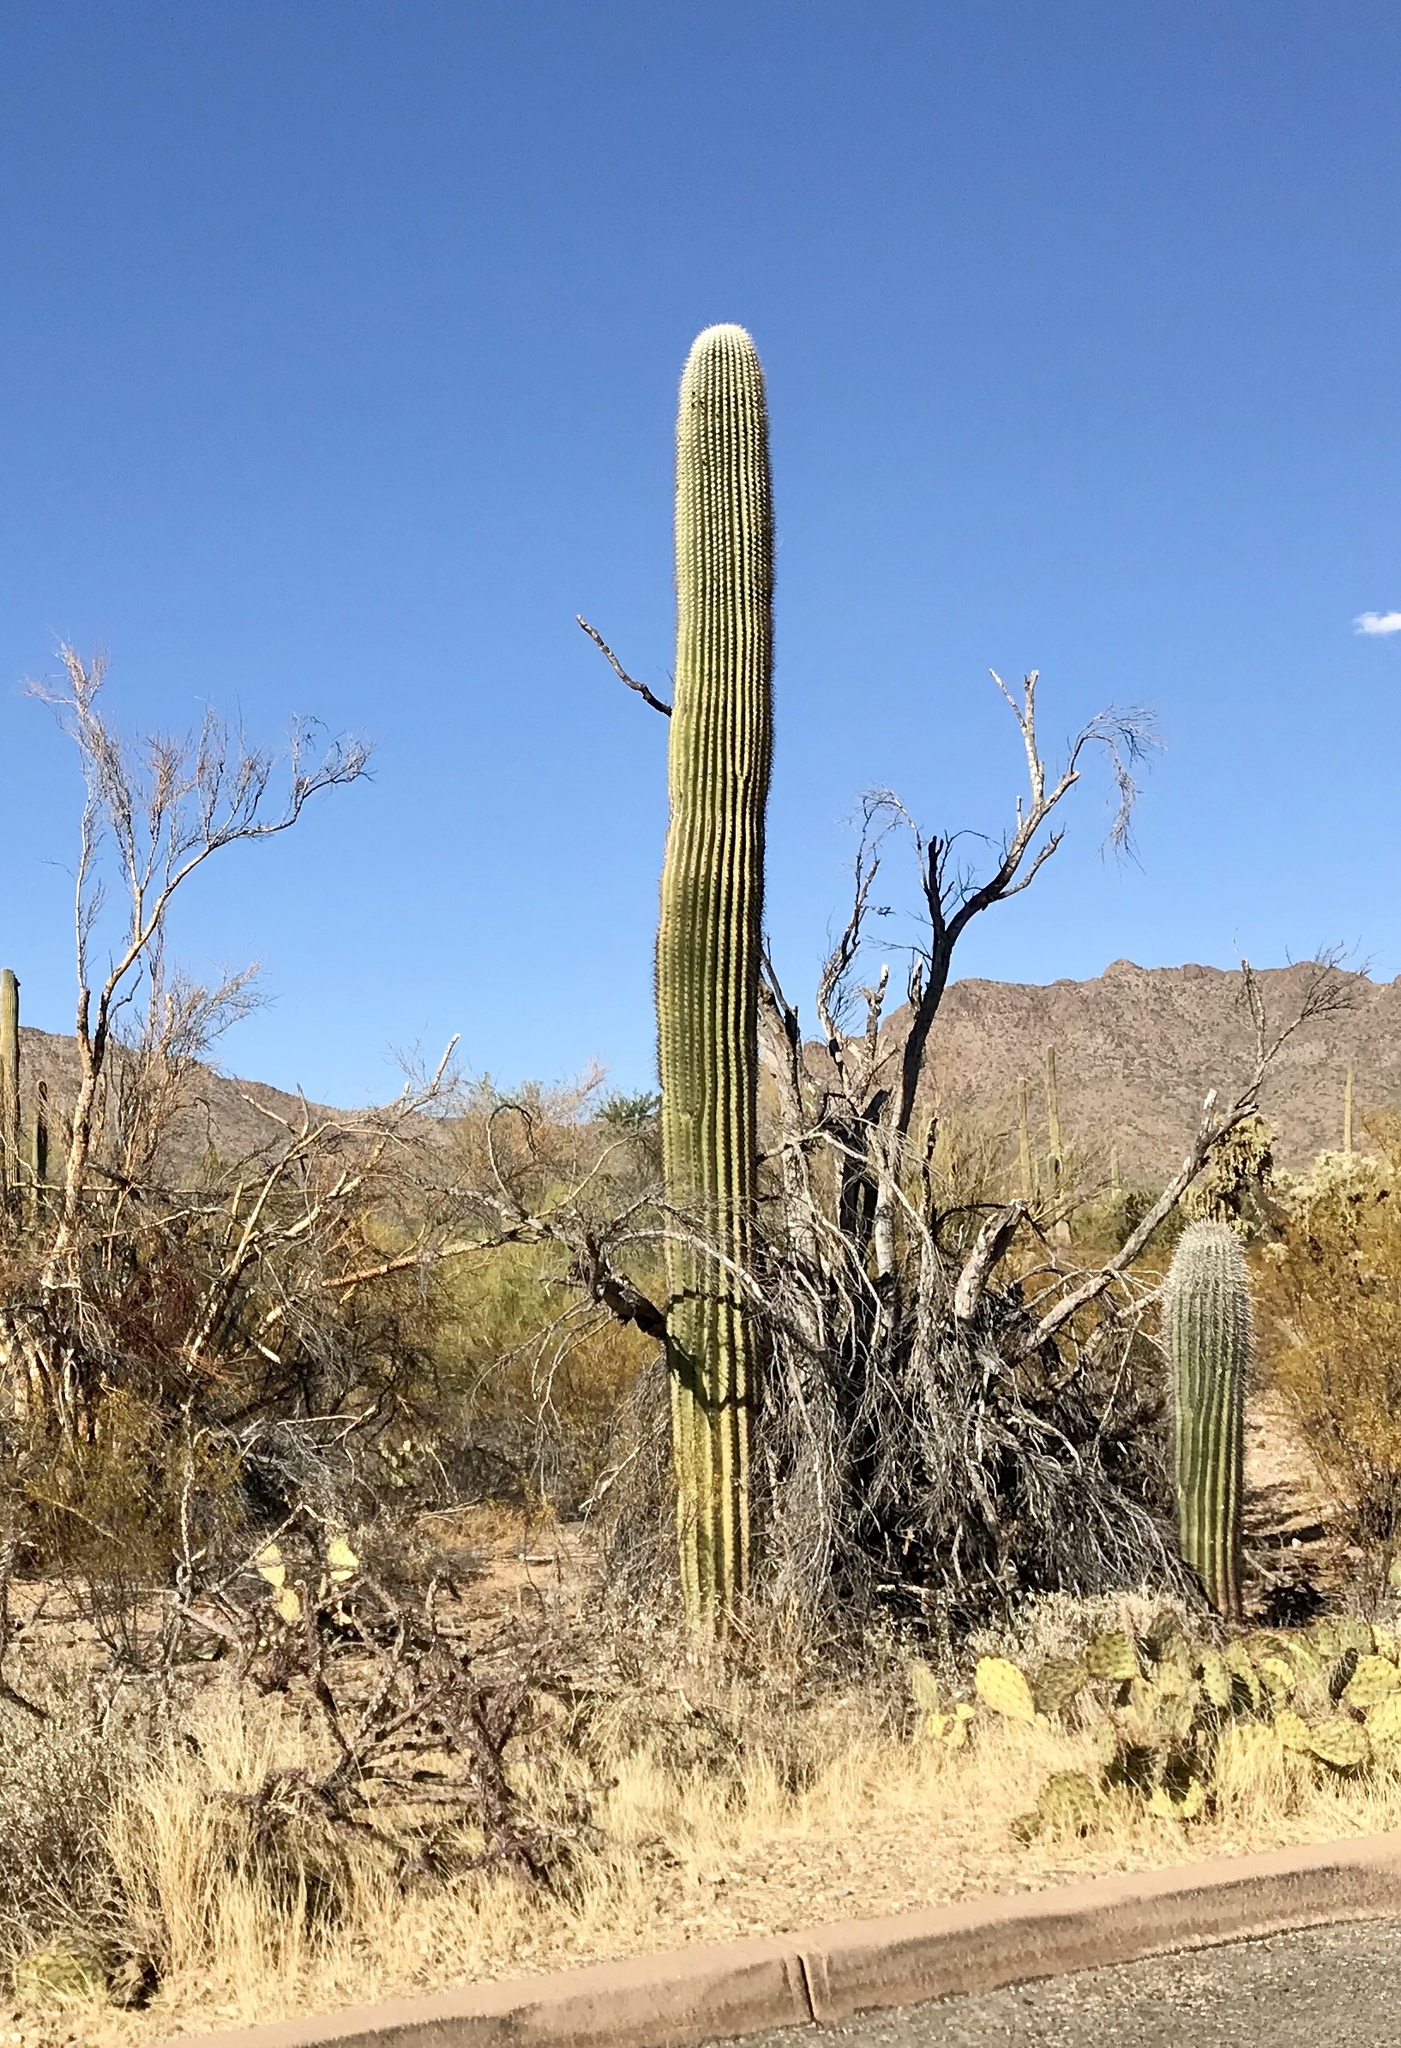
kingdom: Plantae
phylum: Tracheophyta
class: Magnoliopsida
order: Caryophyllales
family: Cactaceae
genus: Carnegiea
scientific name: Carnegiea gigantea
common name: Saguaro
